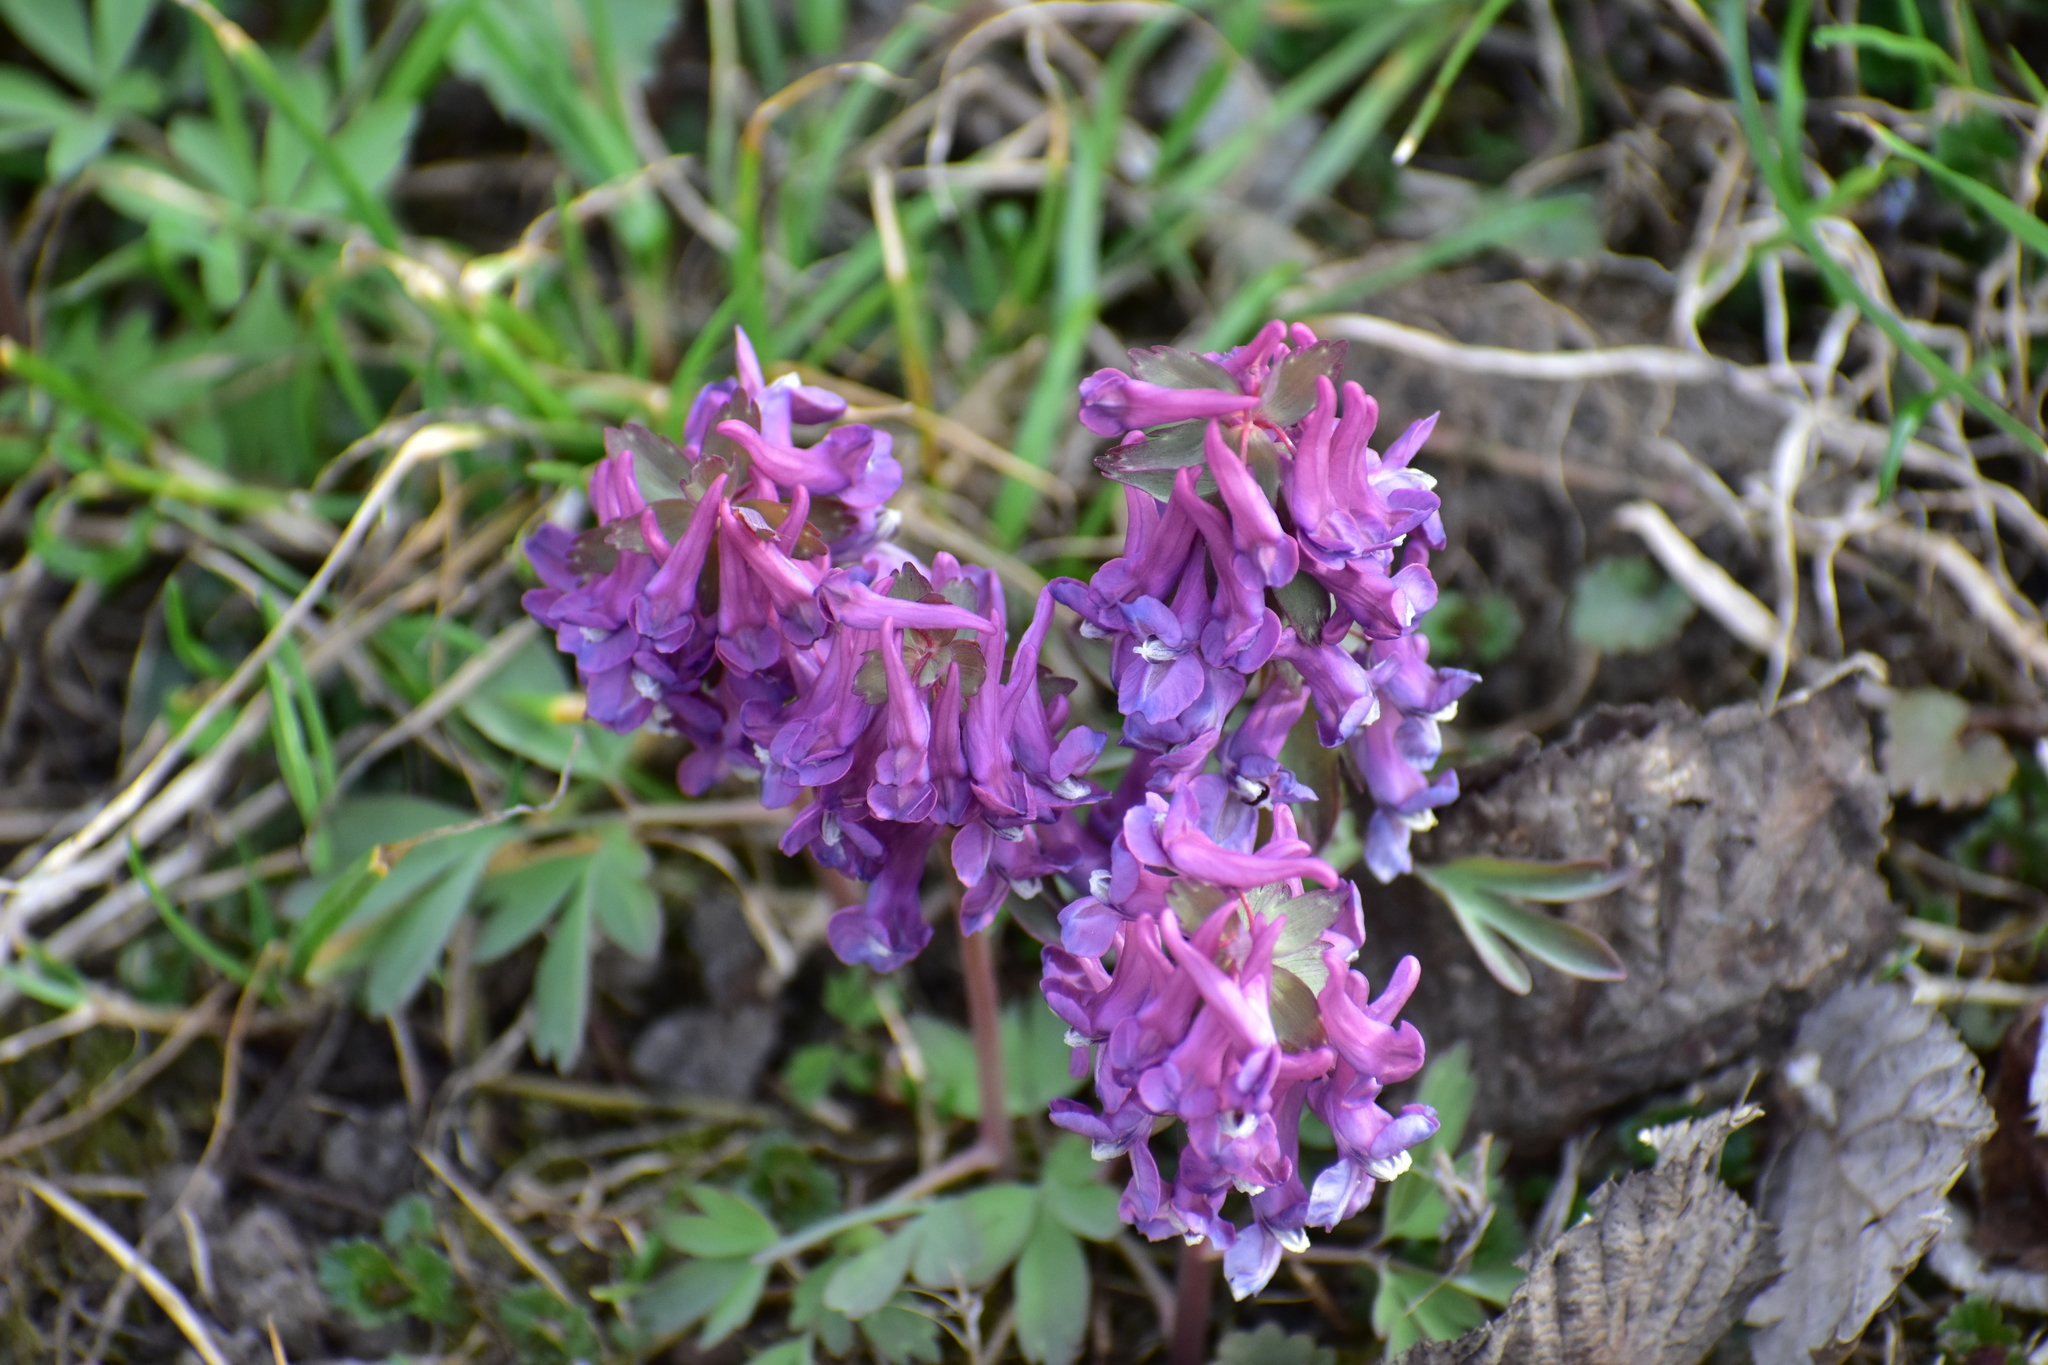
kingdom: Plantae
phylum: Tracheophyta
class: Magnoliopsida
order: Ranunculales
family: Papaveraceae
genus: Corydalis
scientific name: Corydalis solida
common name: Bird-in-a-bush
